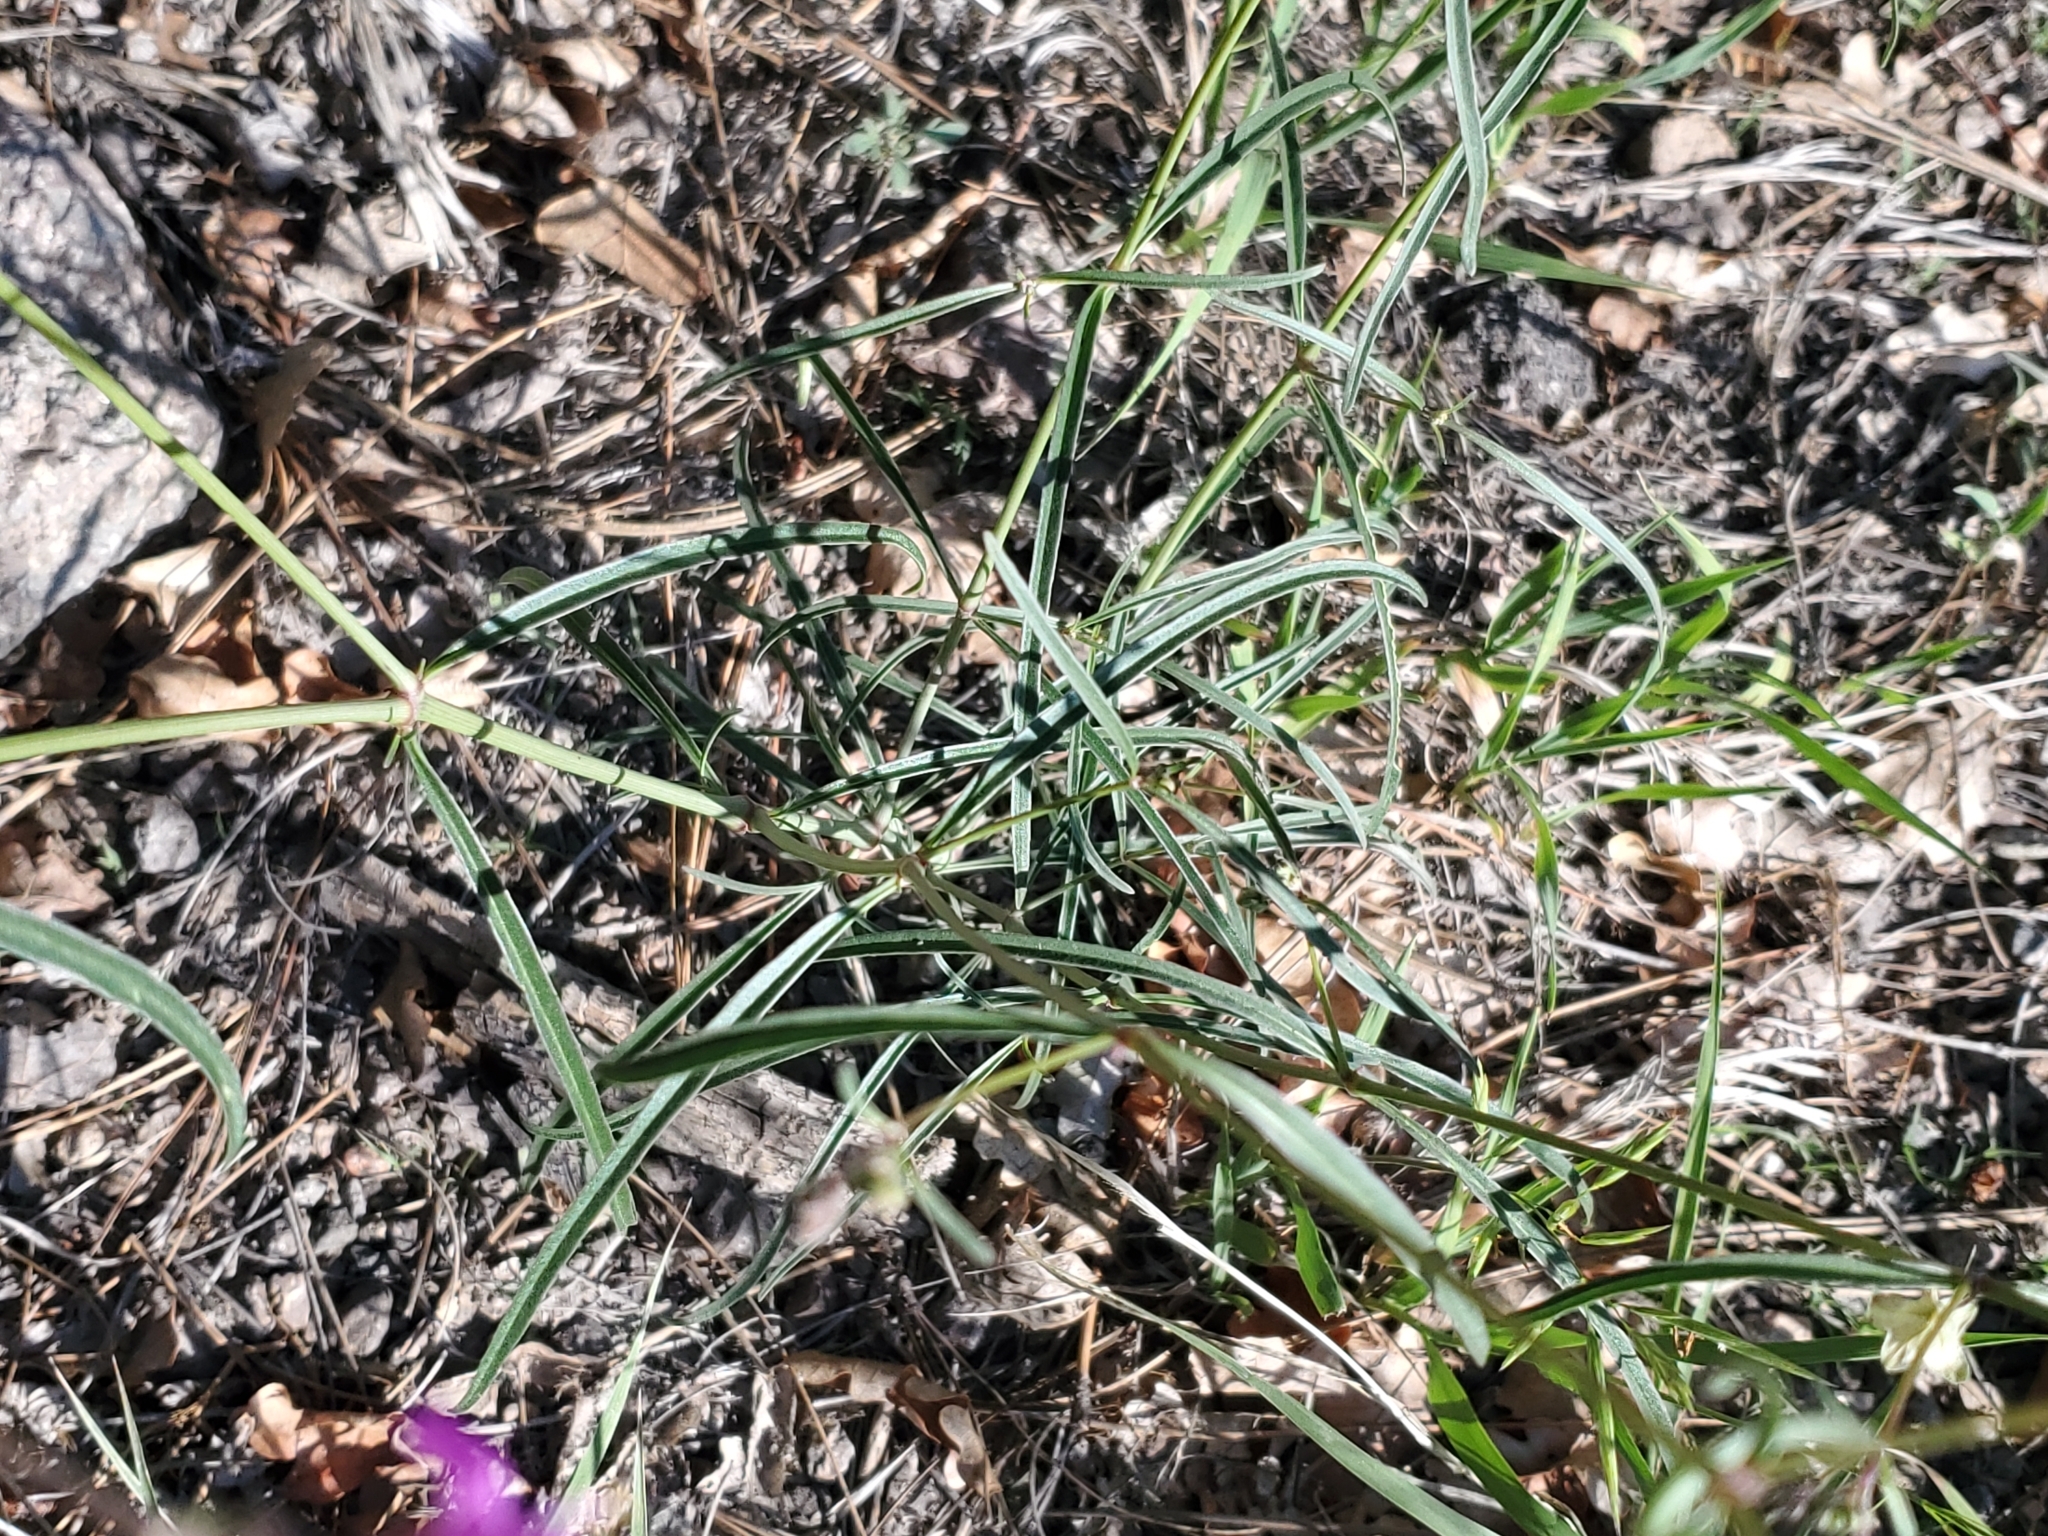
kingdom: Plantae
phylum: Tracheophyta
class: Magnoliopsida
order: Caryophyllales
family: Nyctaginaceae
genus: Mirabilis
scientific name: Mirabilis linearis
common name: Linear-leaved four-o'clock
